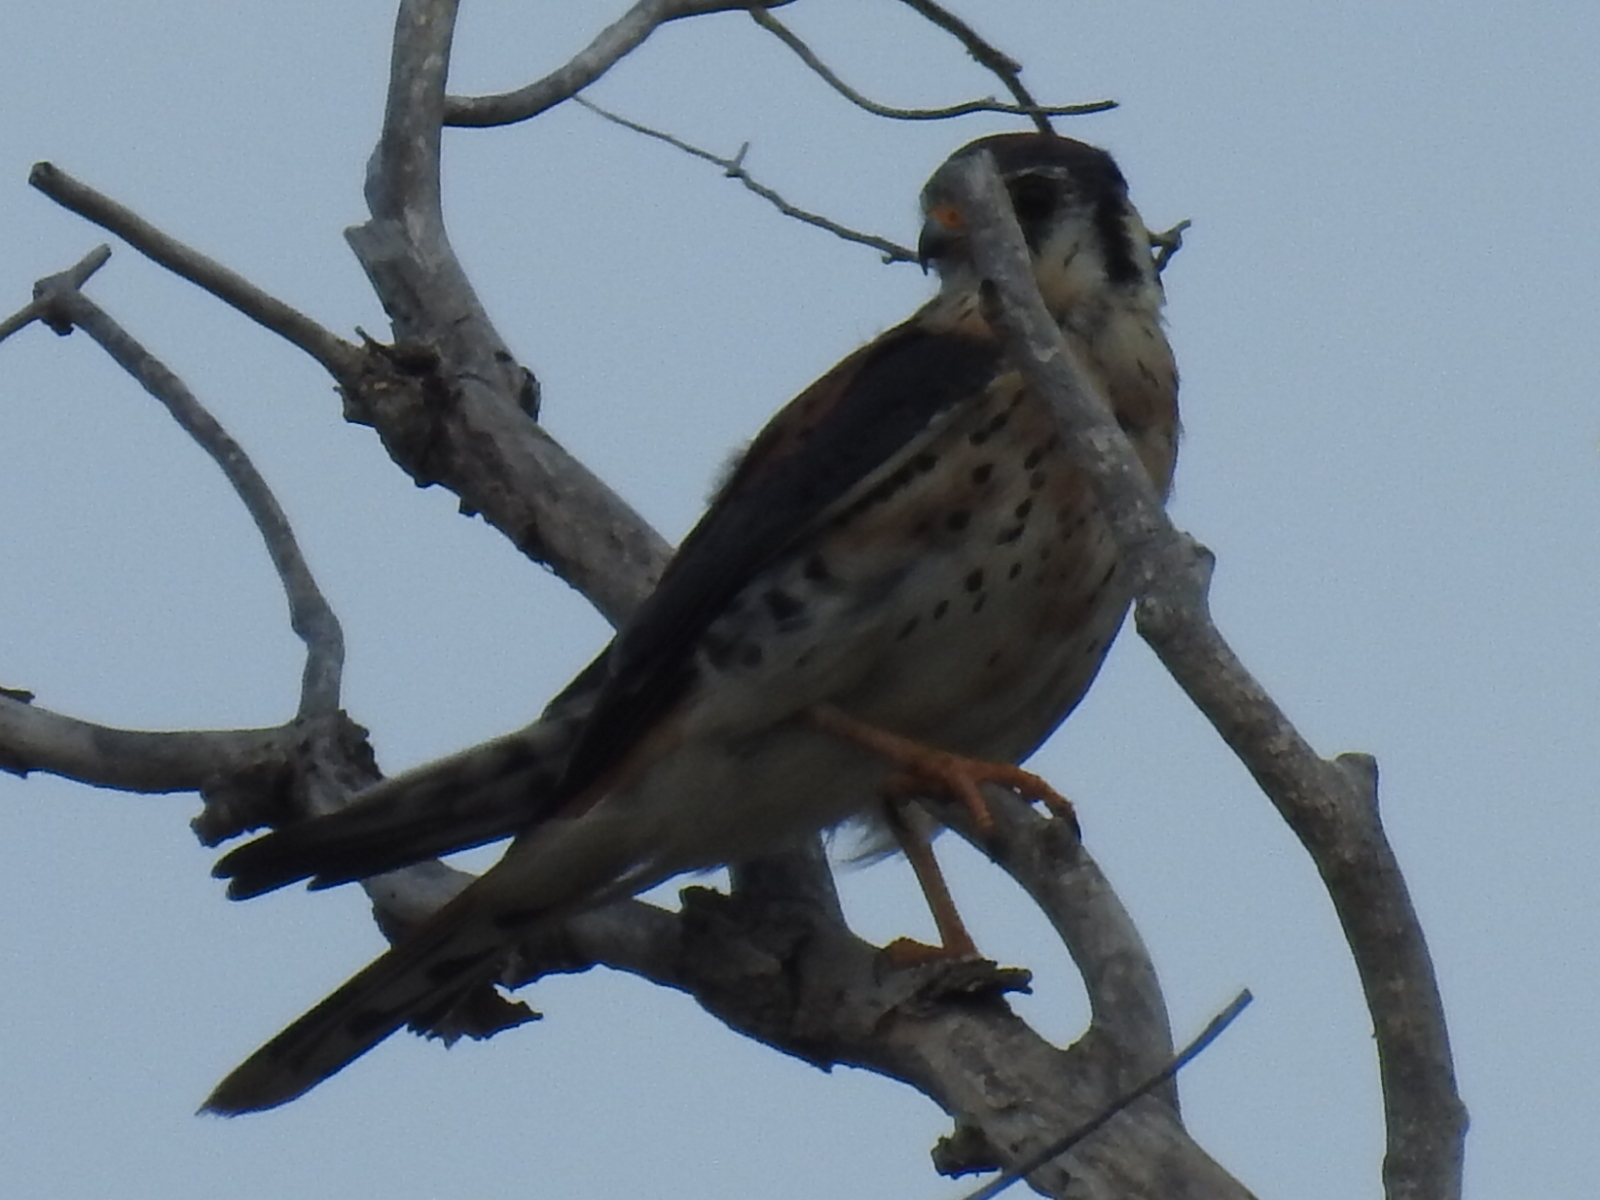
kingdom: Animalia
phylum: Chordata
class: Aves
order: Falconiformes
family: Falconidae
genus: Falco
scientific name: Falco sparverius
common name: American kestrel
